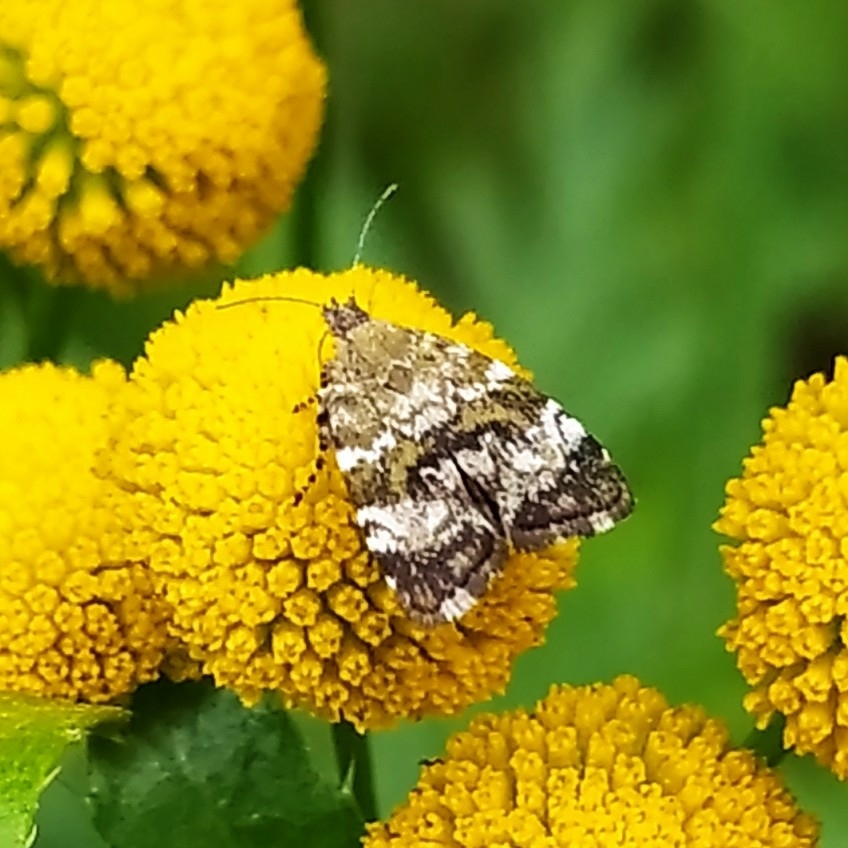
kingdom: Animalia
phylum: Arthropoda
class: Insecta
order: Lepidoptera
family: Choreutidae
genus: Choreutis
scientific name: Choreutis diana
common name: Inverness twitcher
